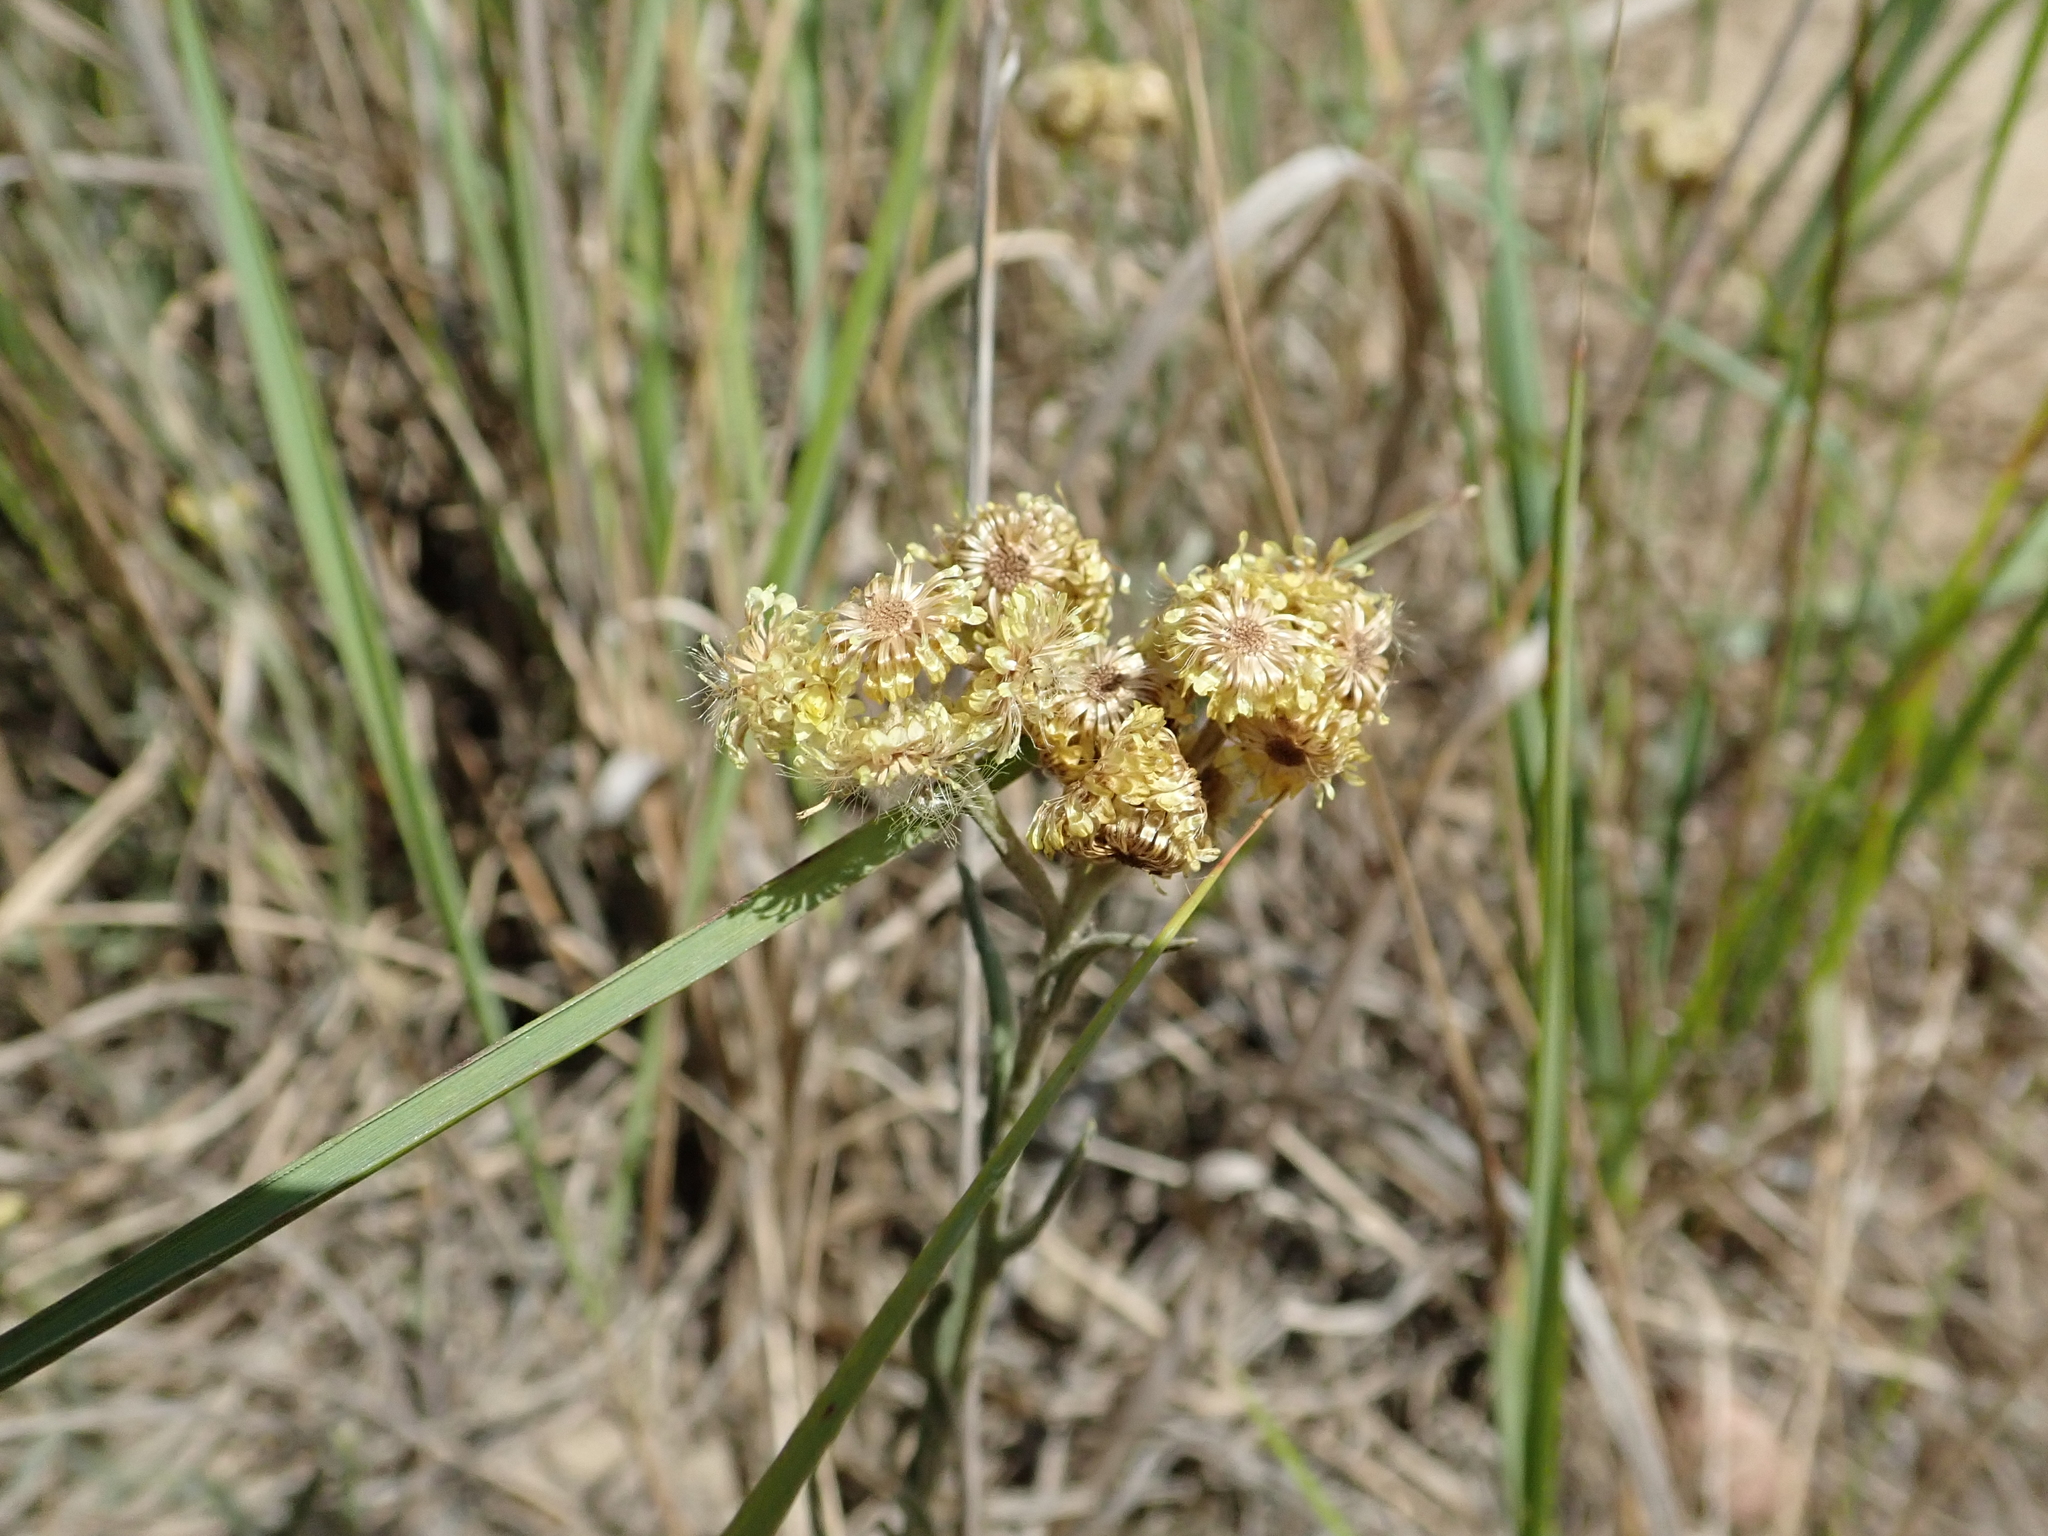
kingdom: Plantae
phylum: Tracheophyta
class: Magnoliopsida
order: Asterales
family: Asteraceae
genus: Helichrysum
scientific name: Helichrysum arenarium
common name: Strawflower
